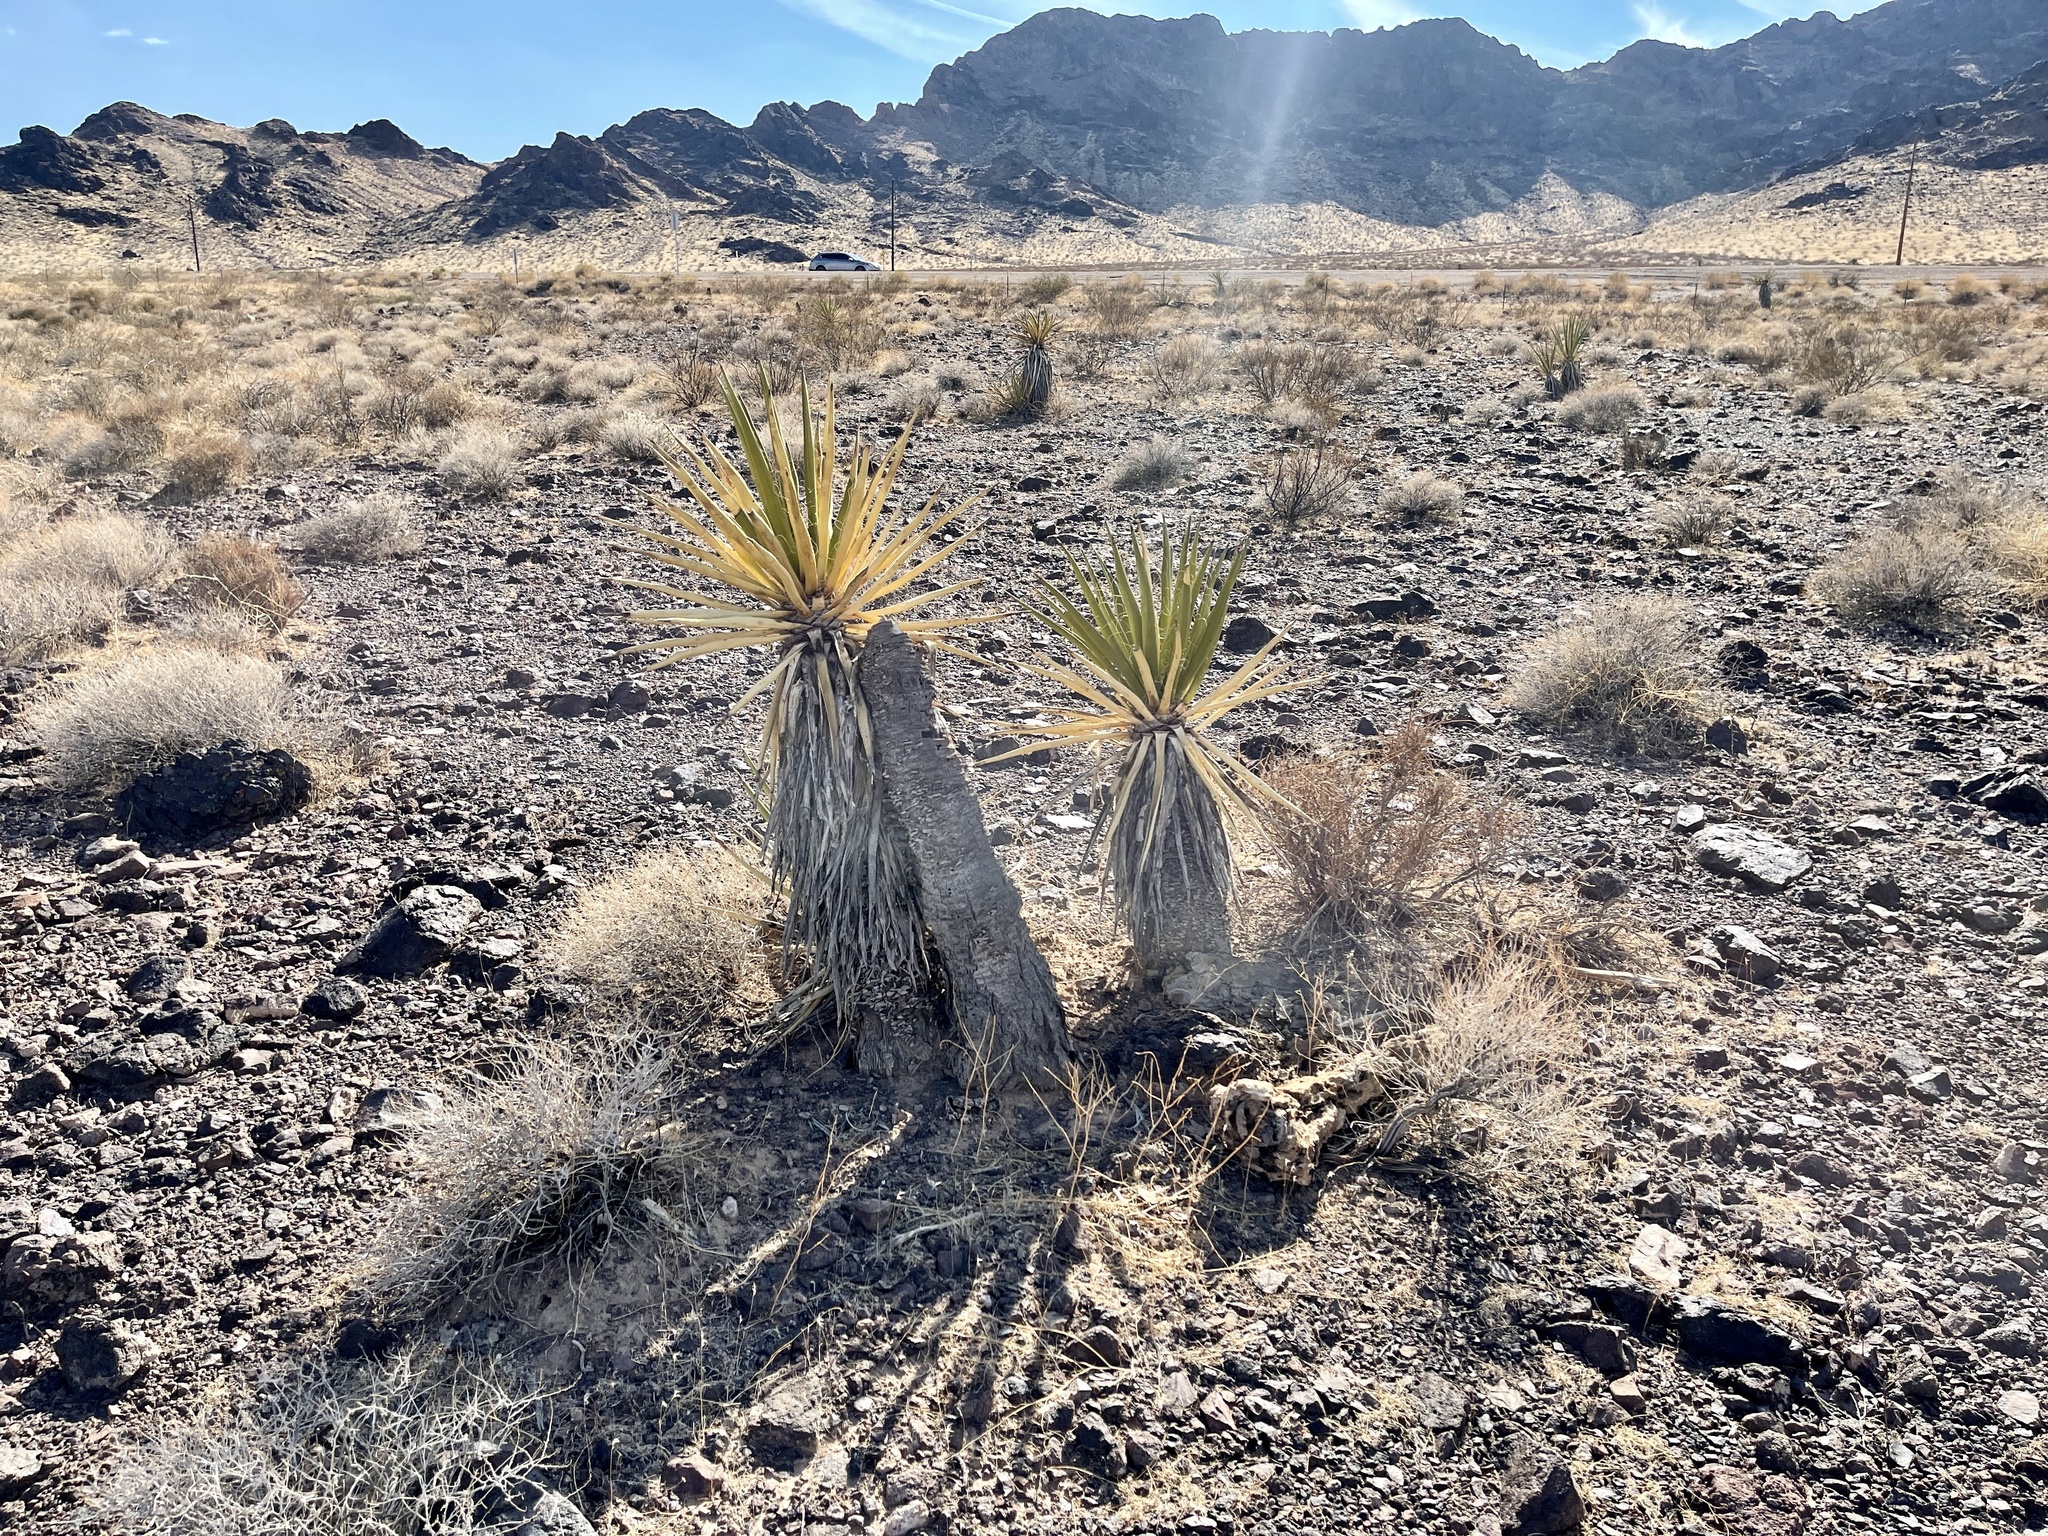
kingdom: Plantae
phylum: Tracheophyta
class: Liliopsida
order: Asparagales
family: Asparagaceae
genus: Yucca
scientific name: Yucca schidigera
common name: Mojave yucca
